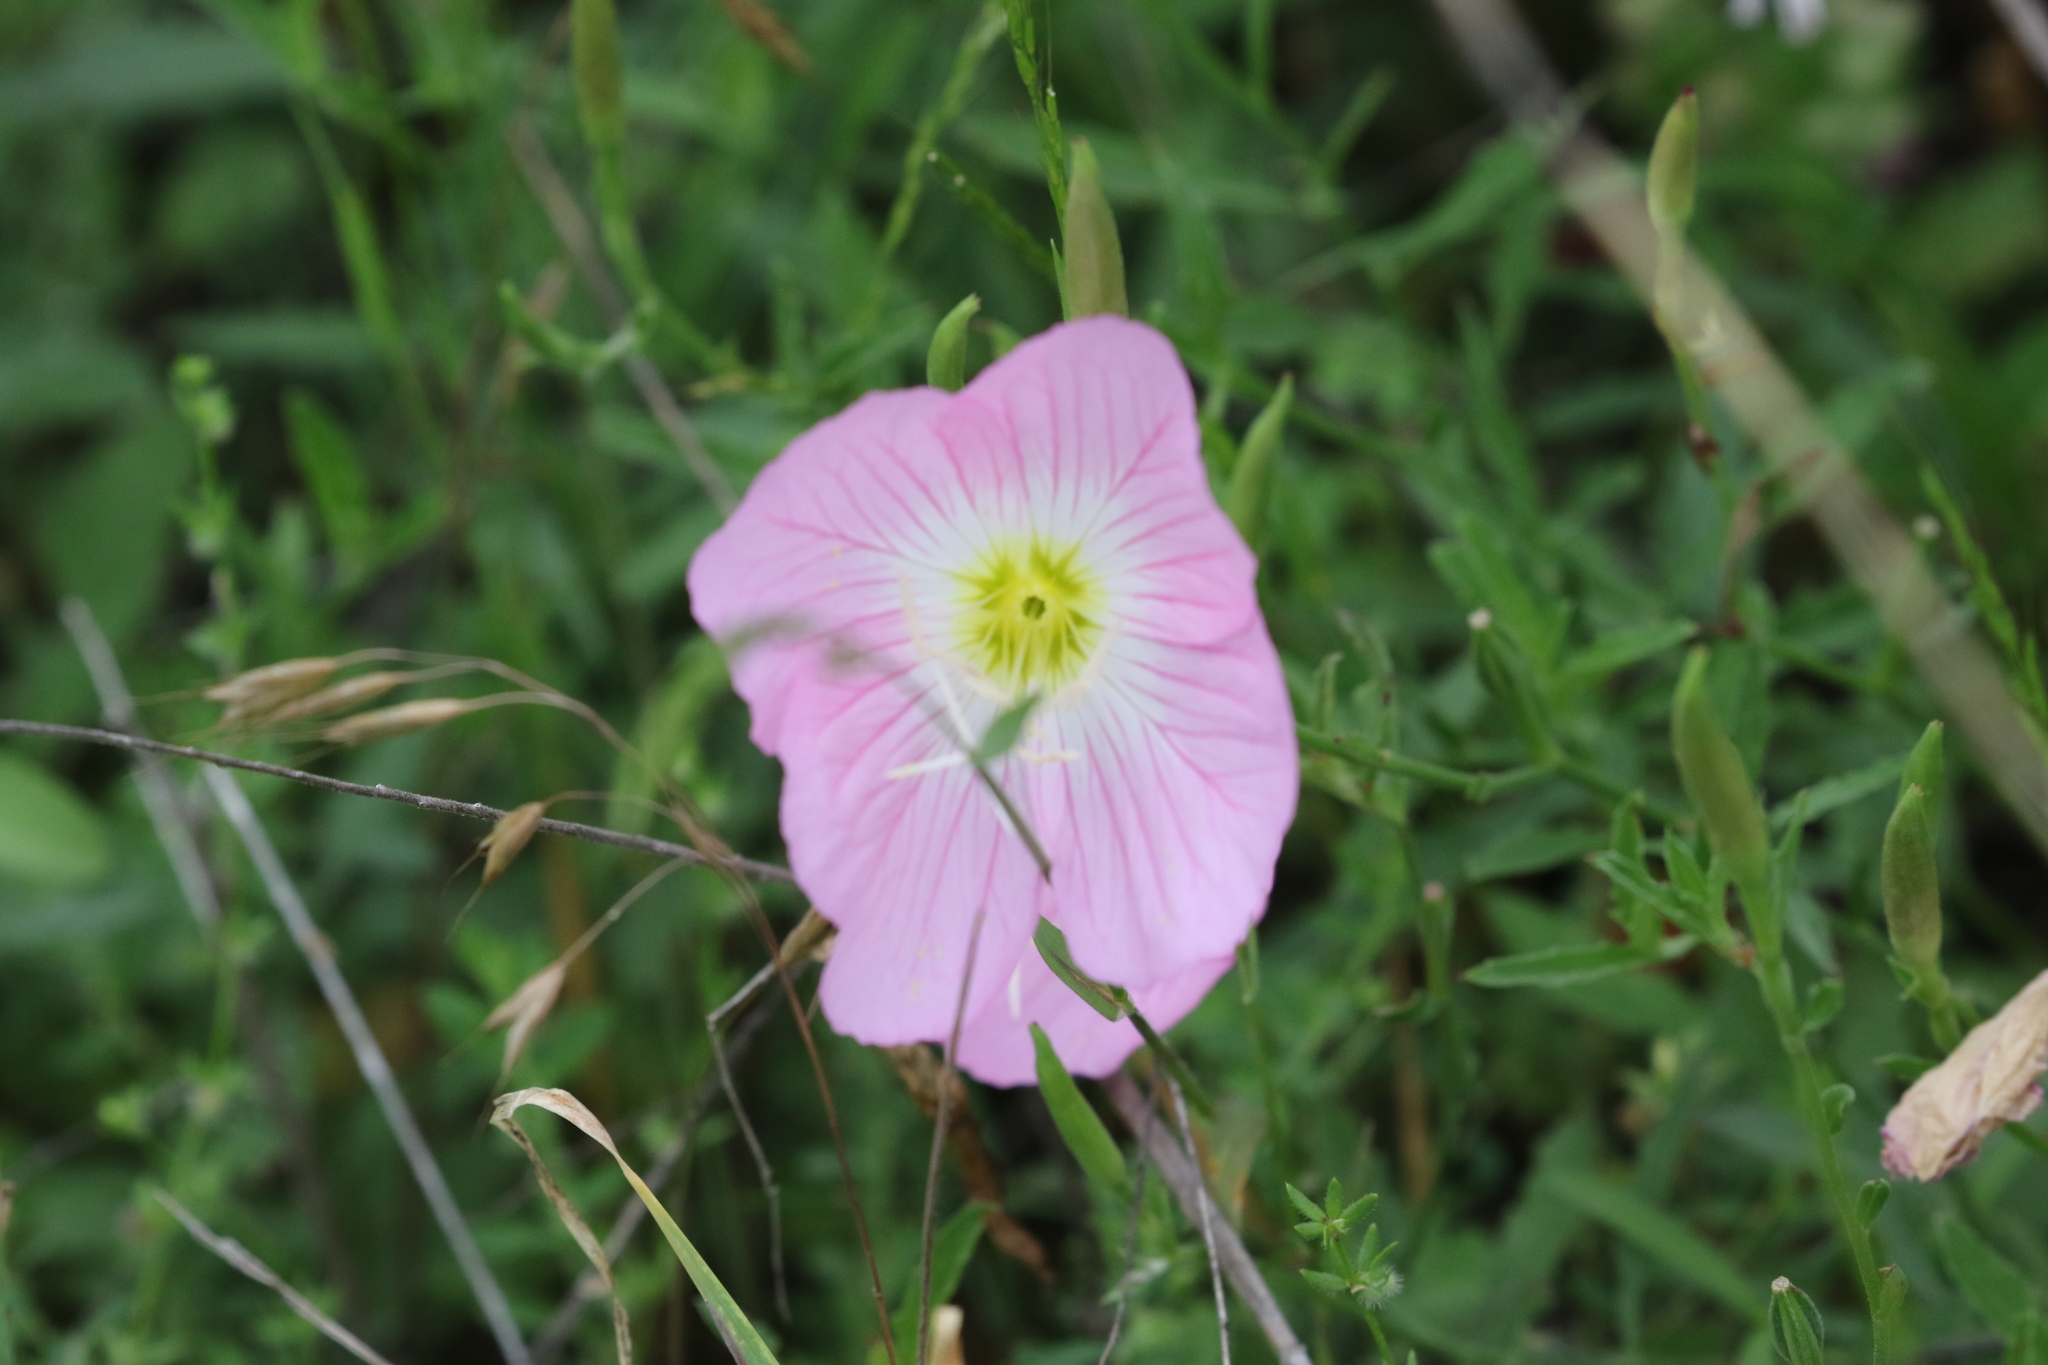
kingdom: Plantae
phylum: Tracheophyta
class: Magnoliopsida
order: Myrtales
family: Onagraceae
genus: Oenothera
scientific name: Oenothera speciosa
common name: White evening-primrose
